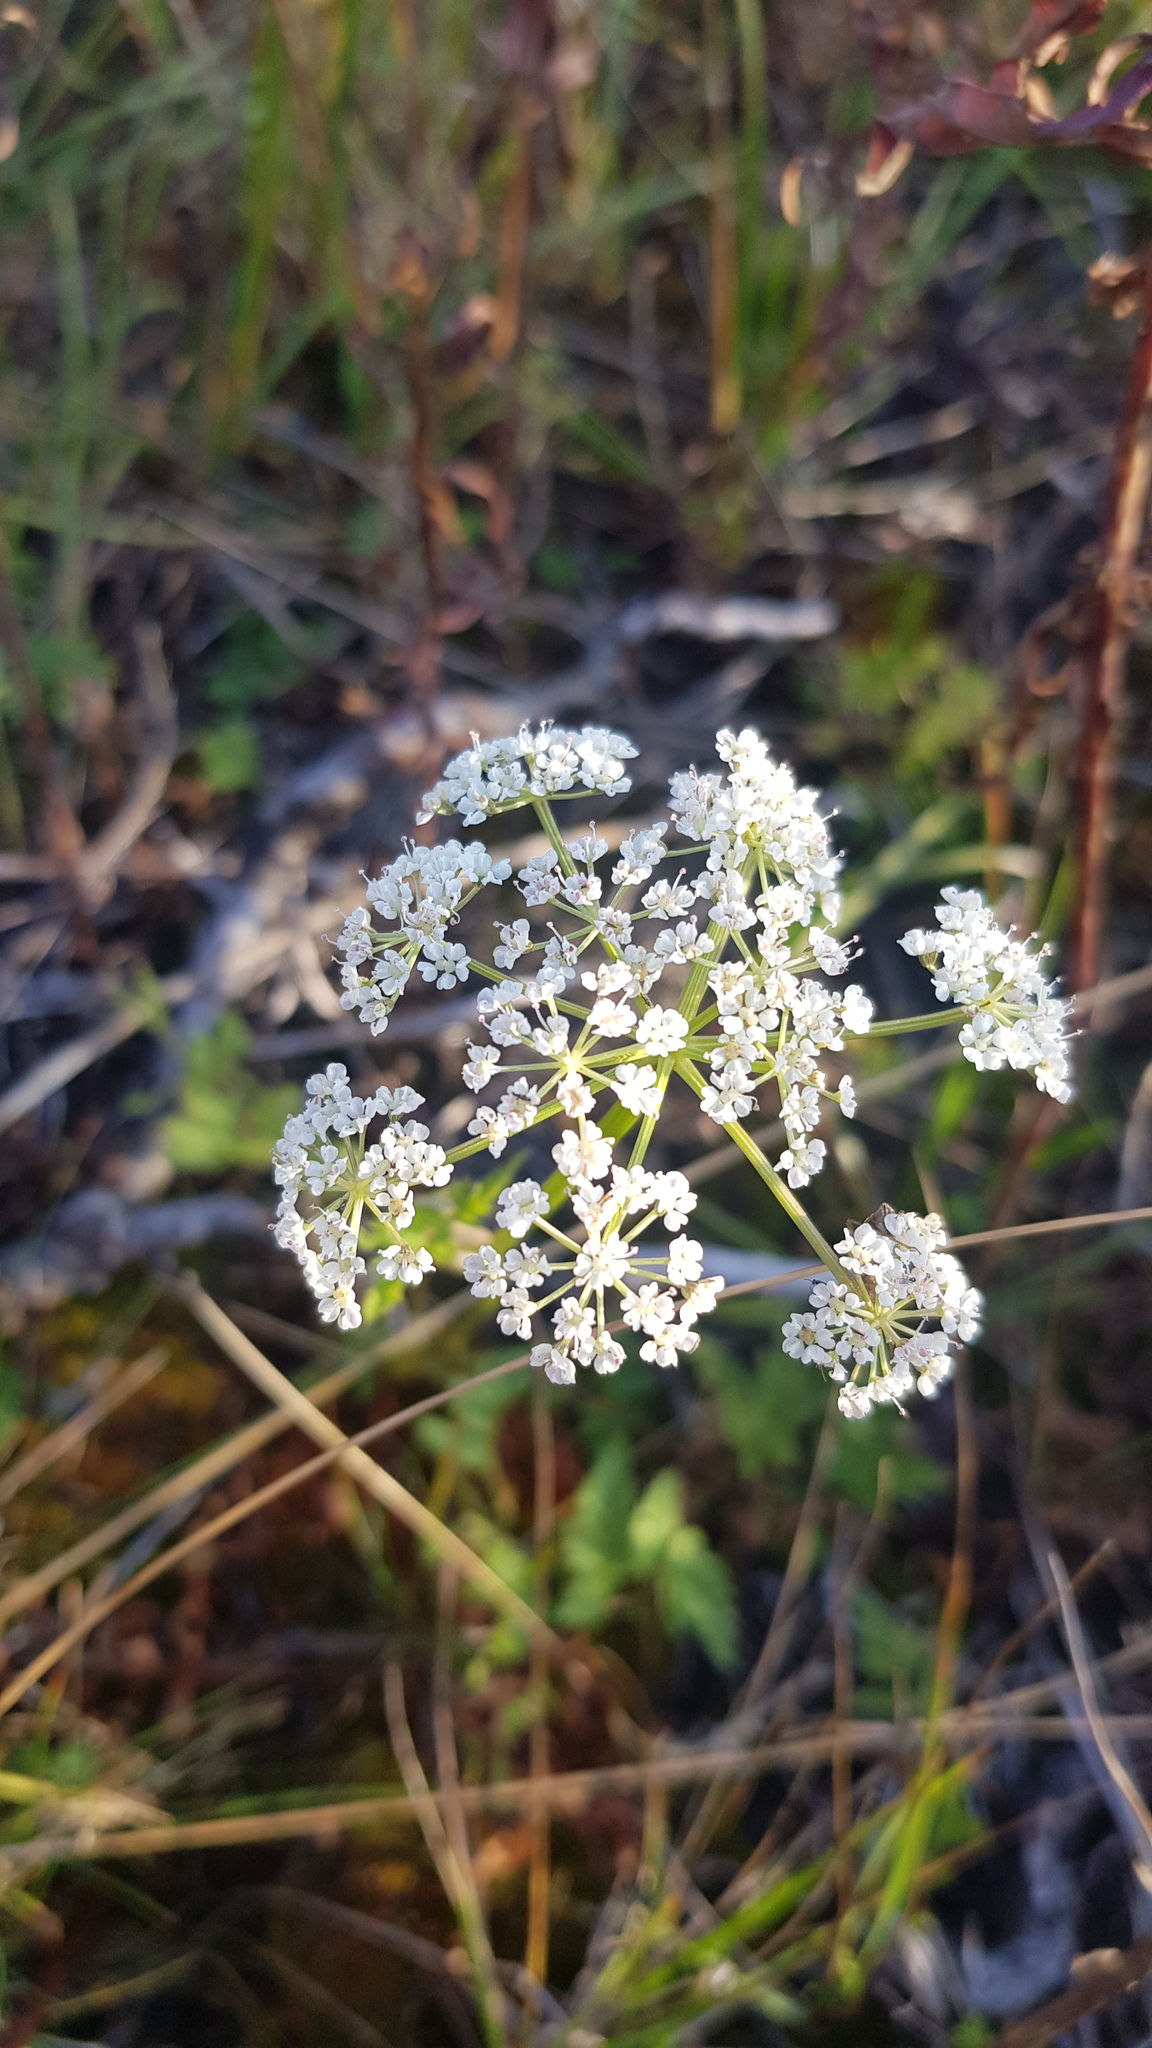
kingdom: Plantae
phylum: Tracheophyta
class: Magnoliopsida
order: Apiales
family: Apiaceae
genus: Aegopodium
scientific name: Aegopodium alpestre
